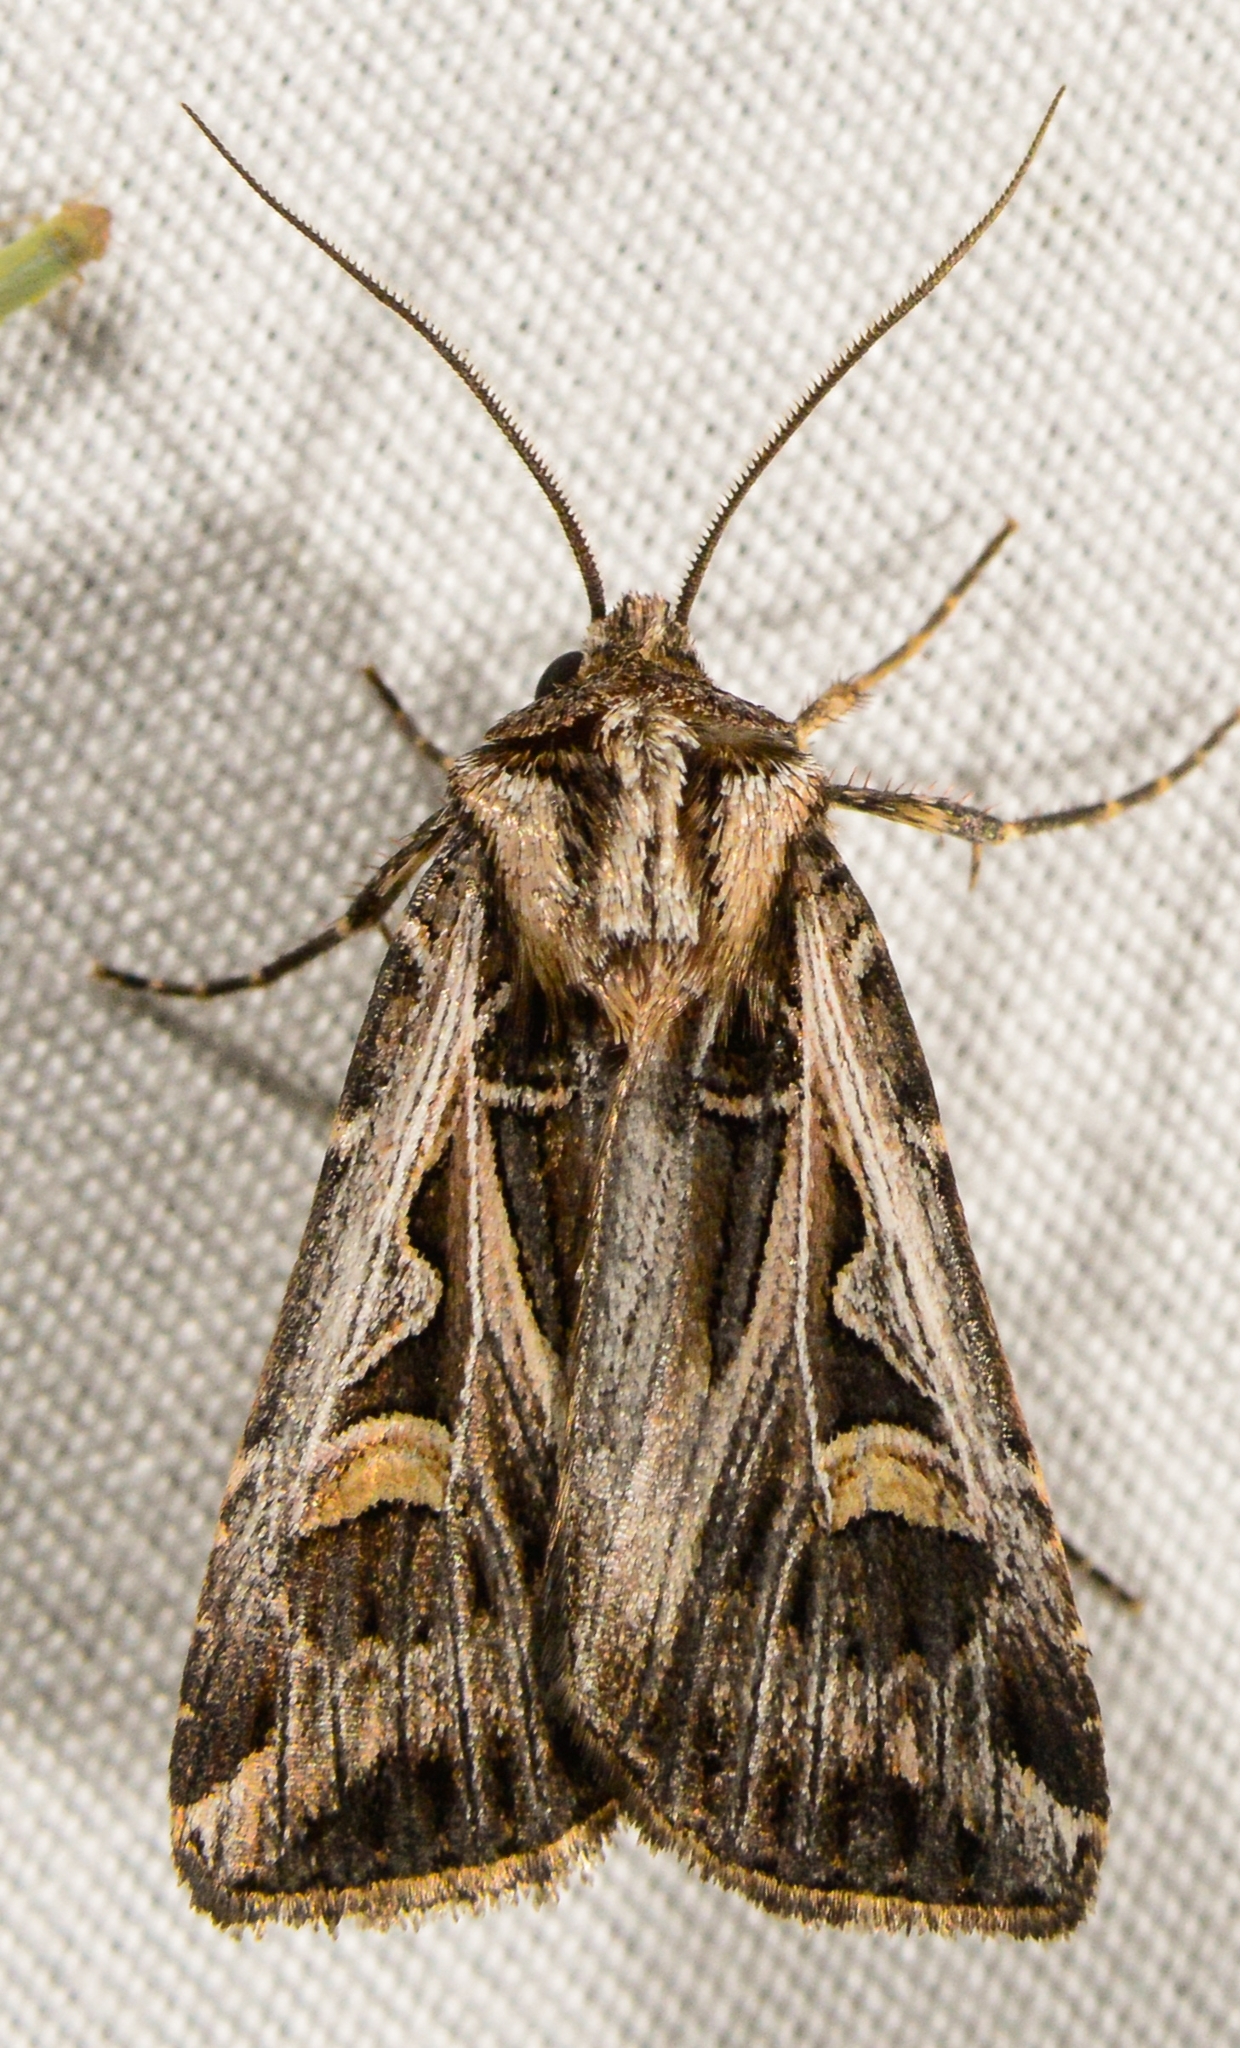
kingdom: Animalia
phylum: Arthropoda
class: Insecta
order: Lepidoptera
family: Noctuidae
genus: Feltia
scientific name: Feltia jaculifera
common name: Dingy cutworm moth
